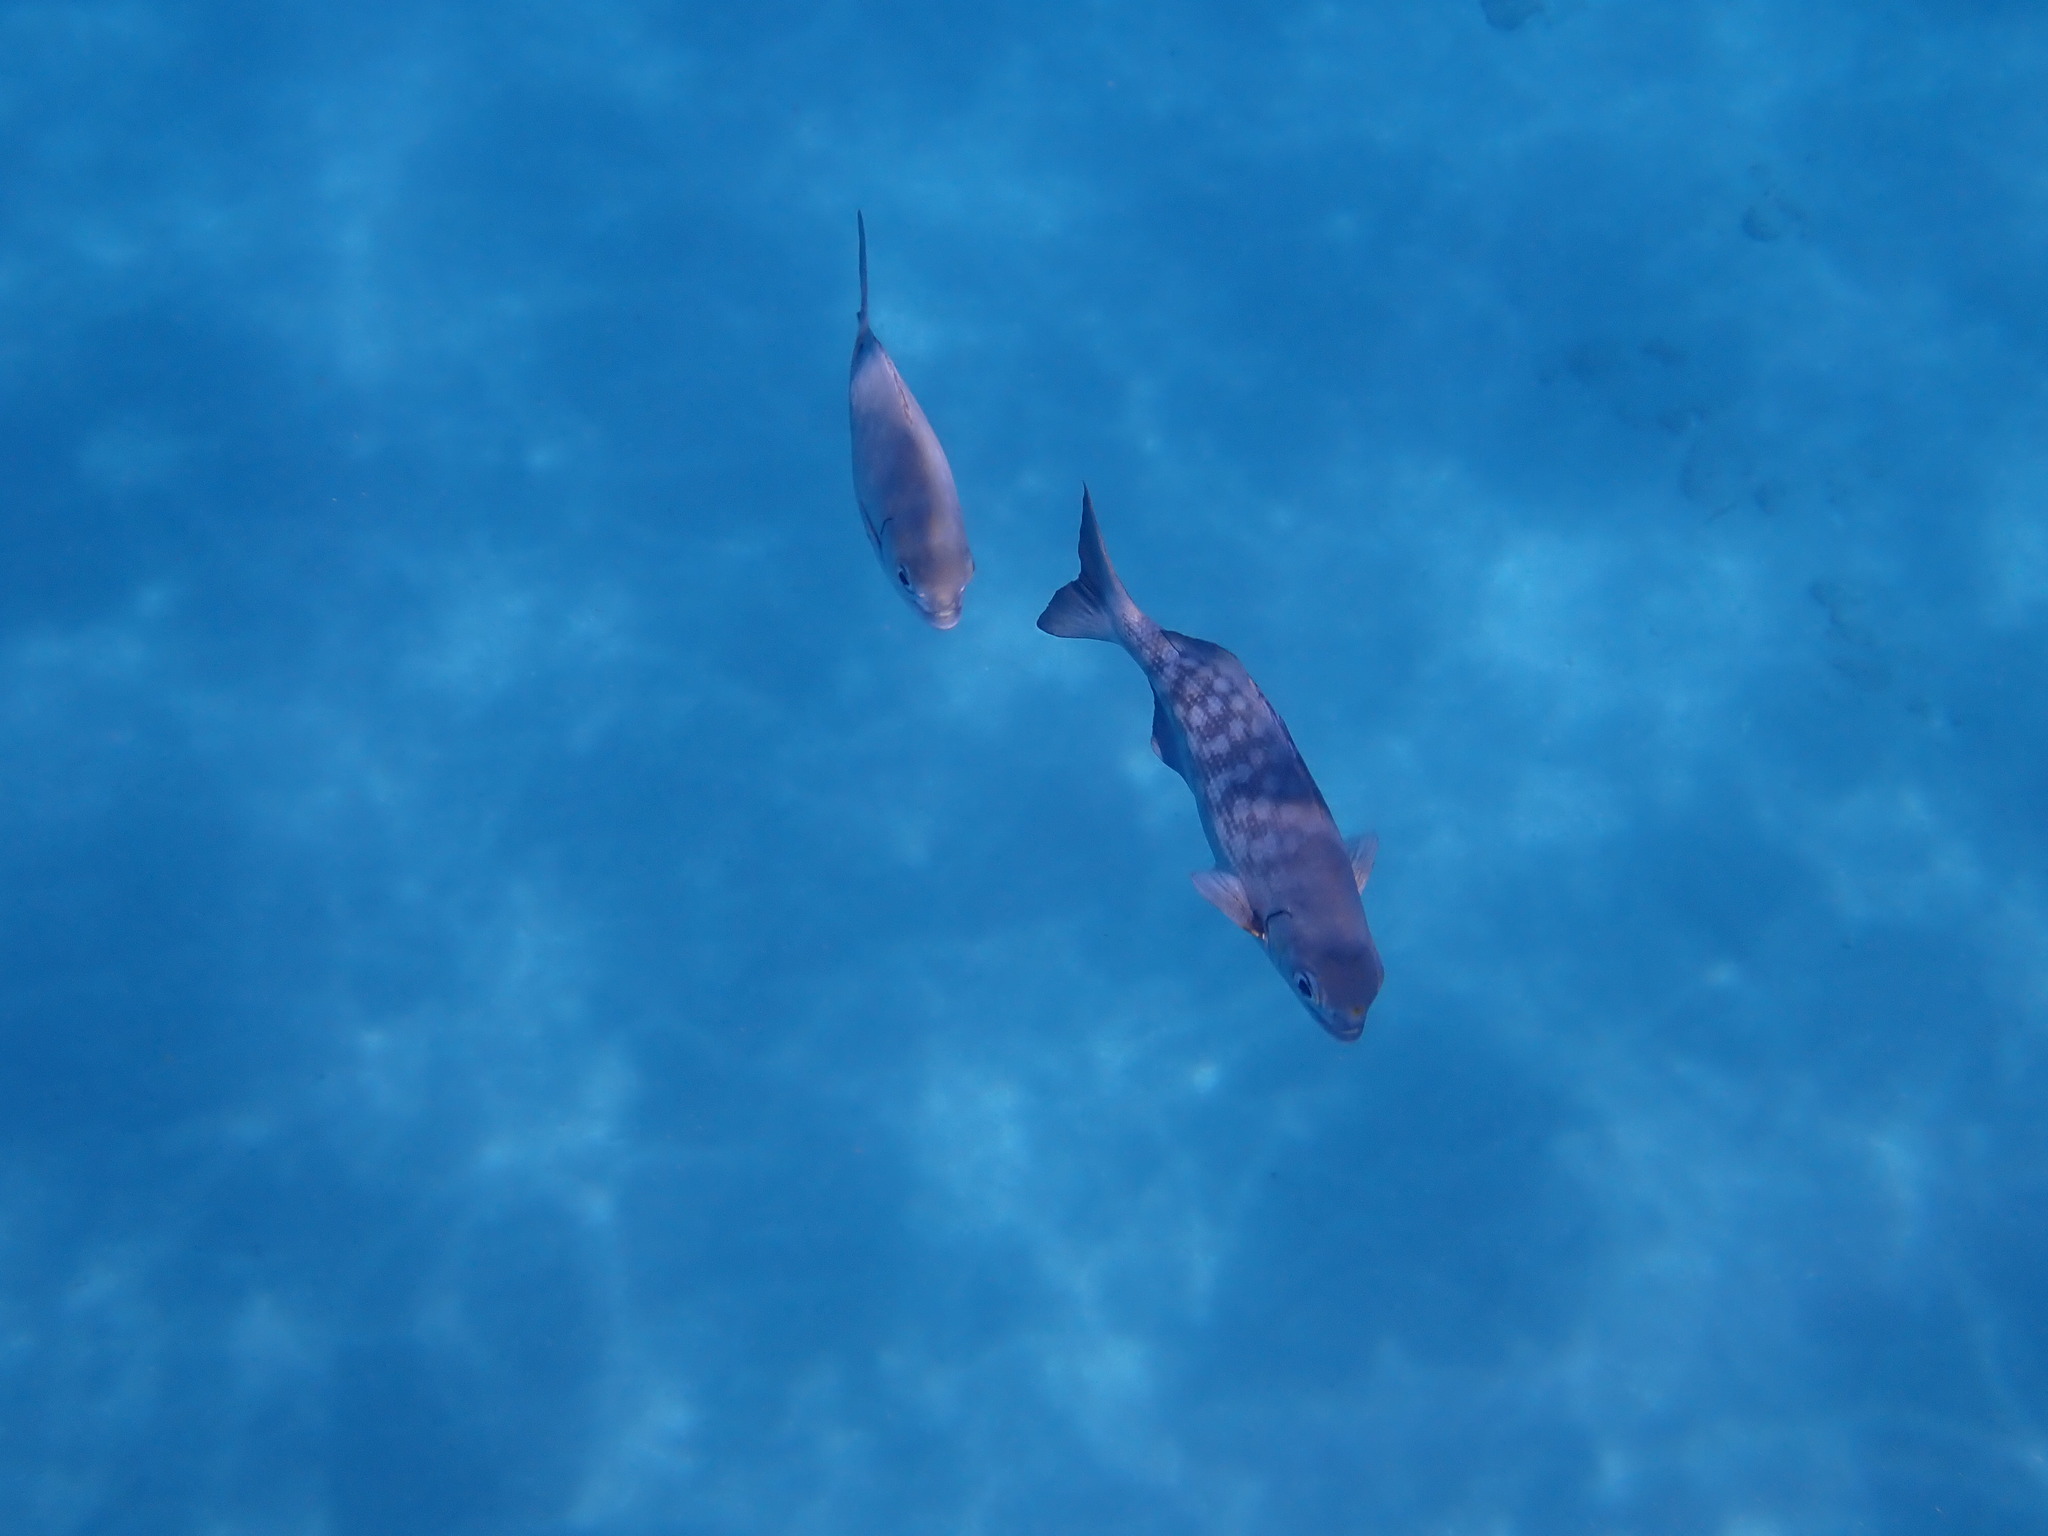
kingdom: Animalia
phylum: Chordata
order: Perciformes
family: Kyphosidae
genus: Kyphosus
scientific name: Kyphosus elegans
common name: Cortez chub
